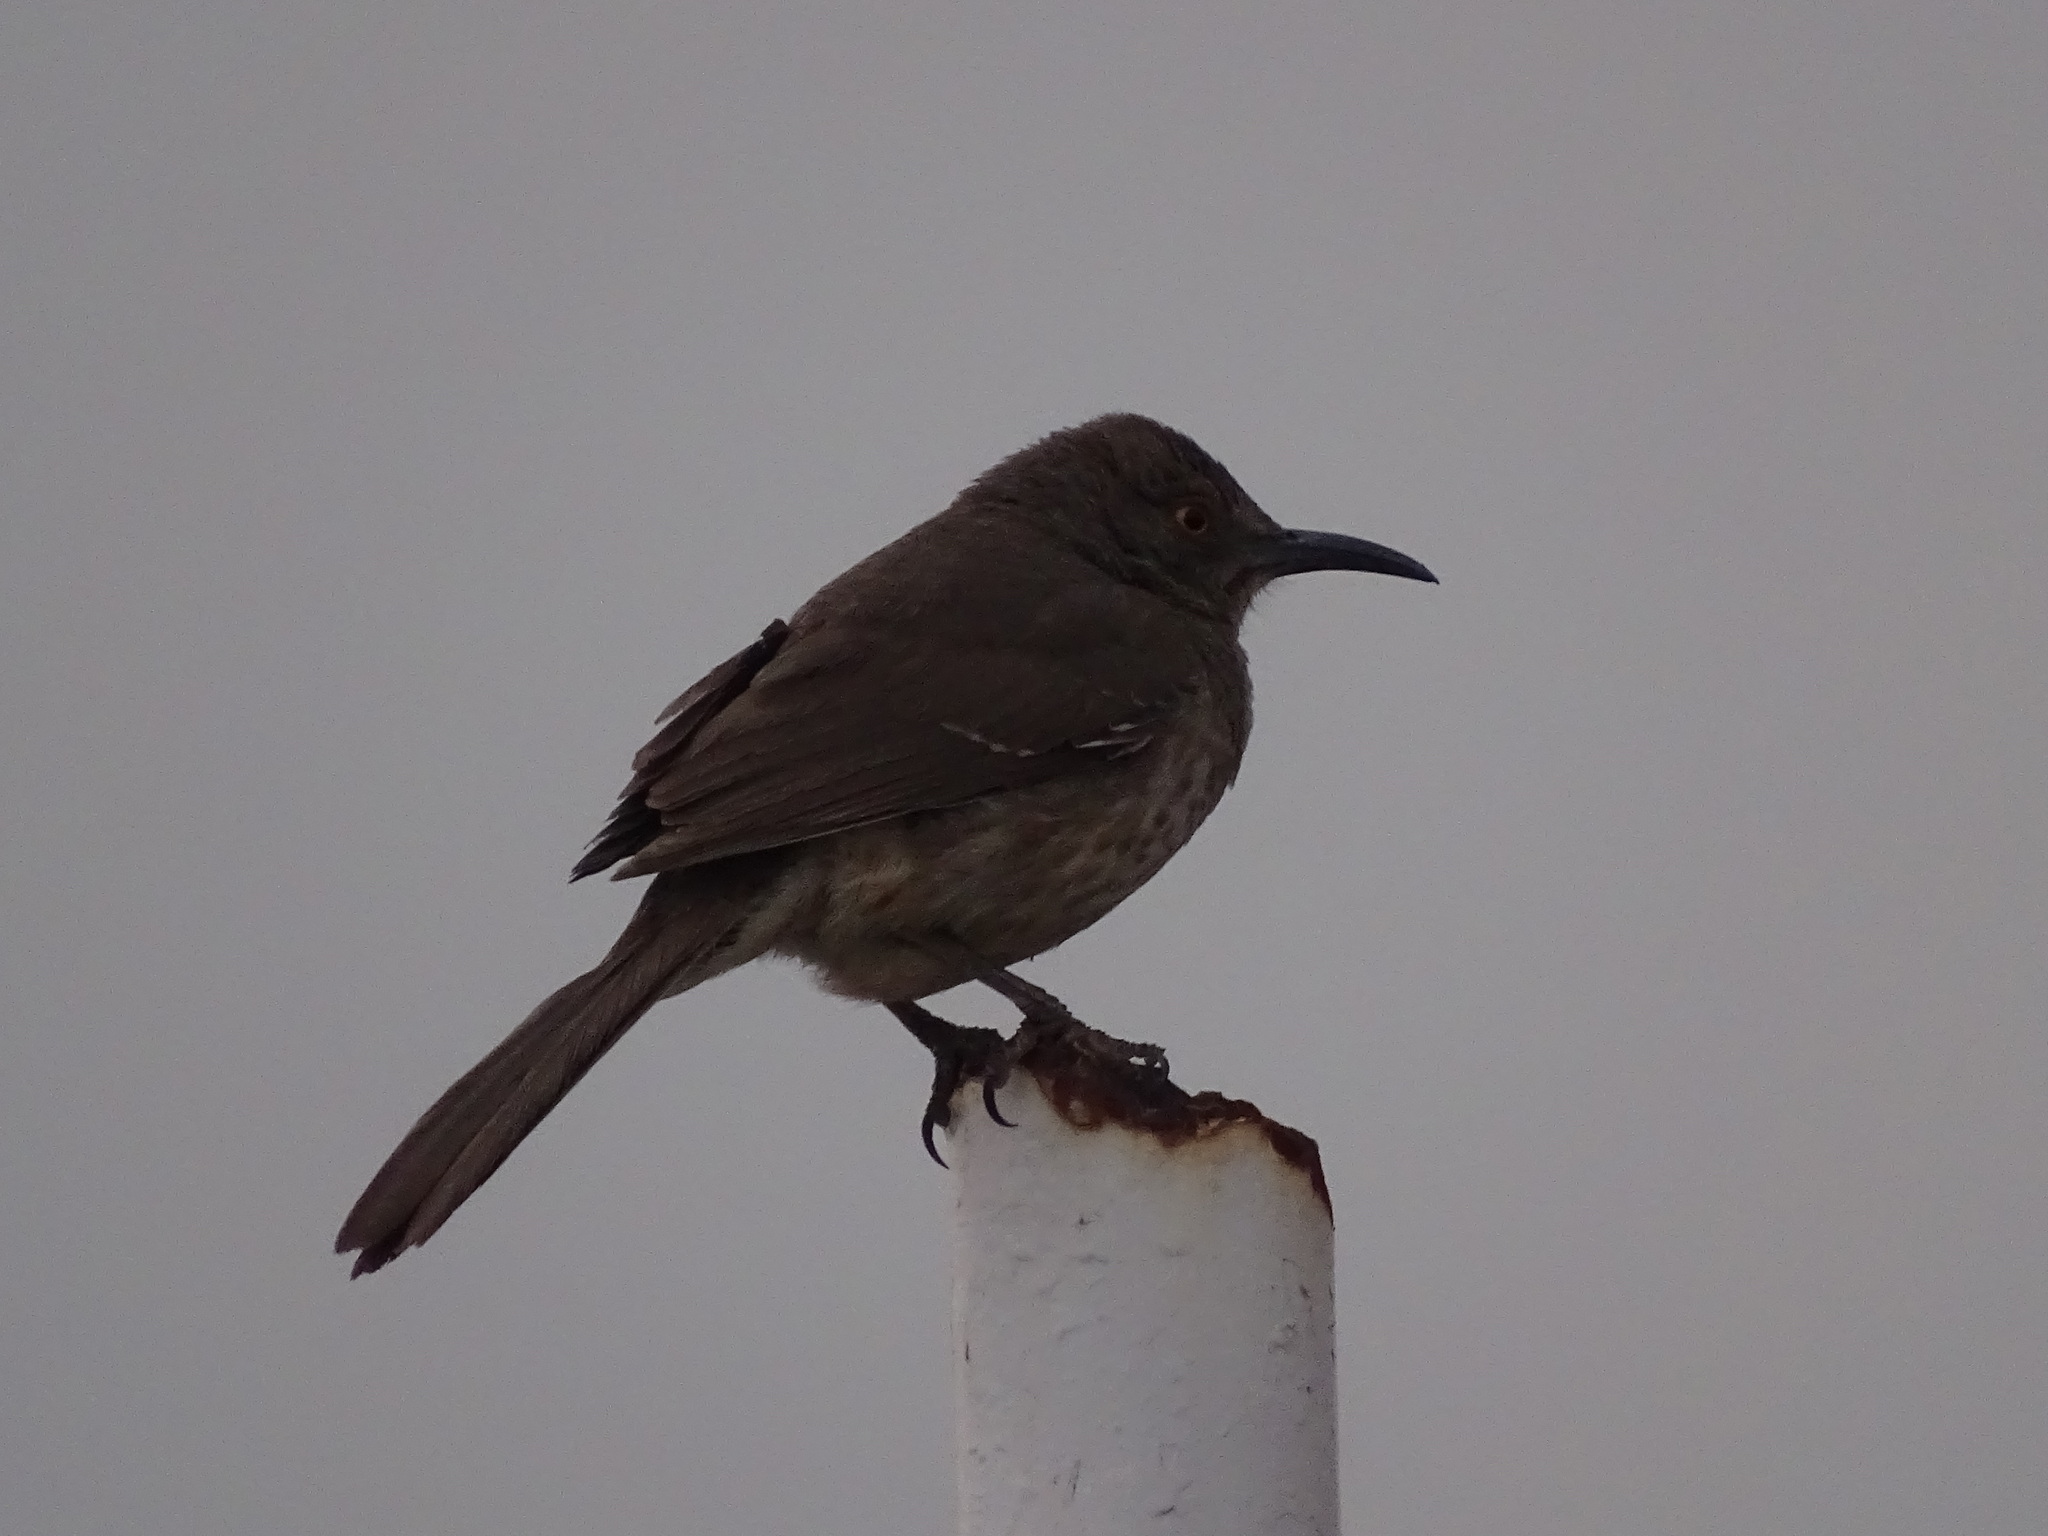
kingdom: Animalia
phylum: Chordata
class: Aves
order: Passeriformes
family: Mimidae
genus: Toxostoma
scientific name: Toxostoma curvirostre
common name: Curve-billed thrasher
